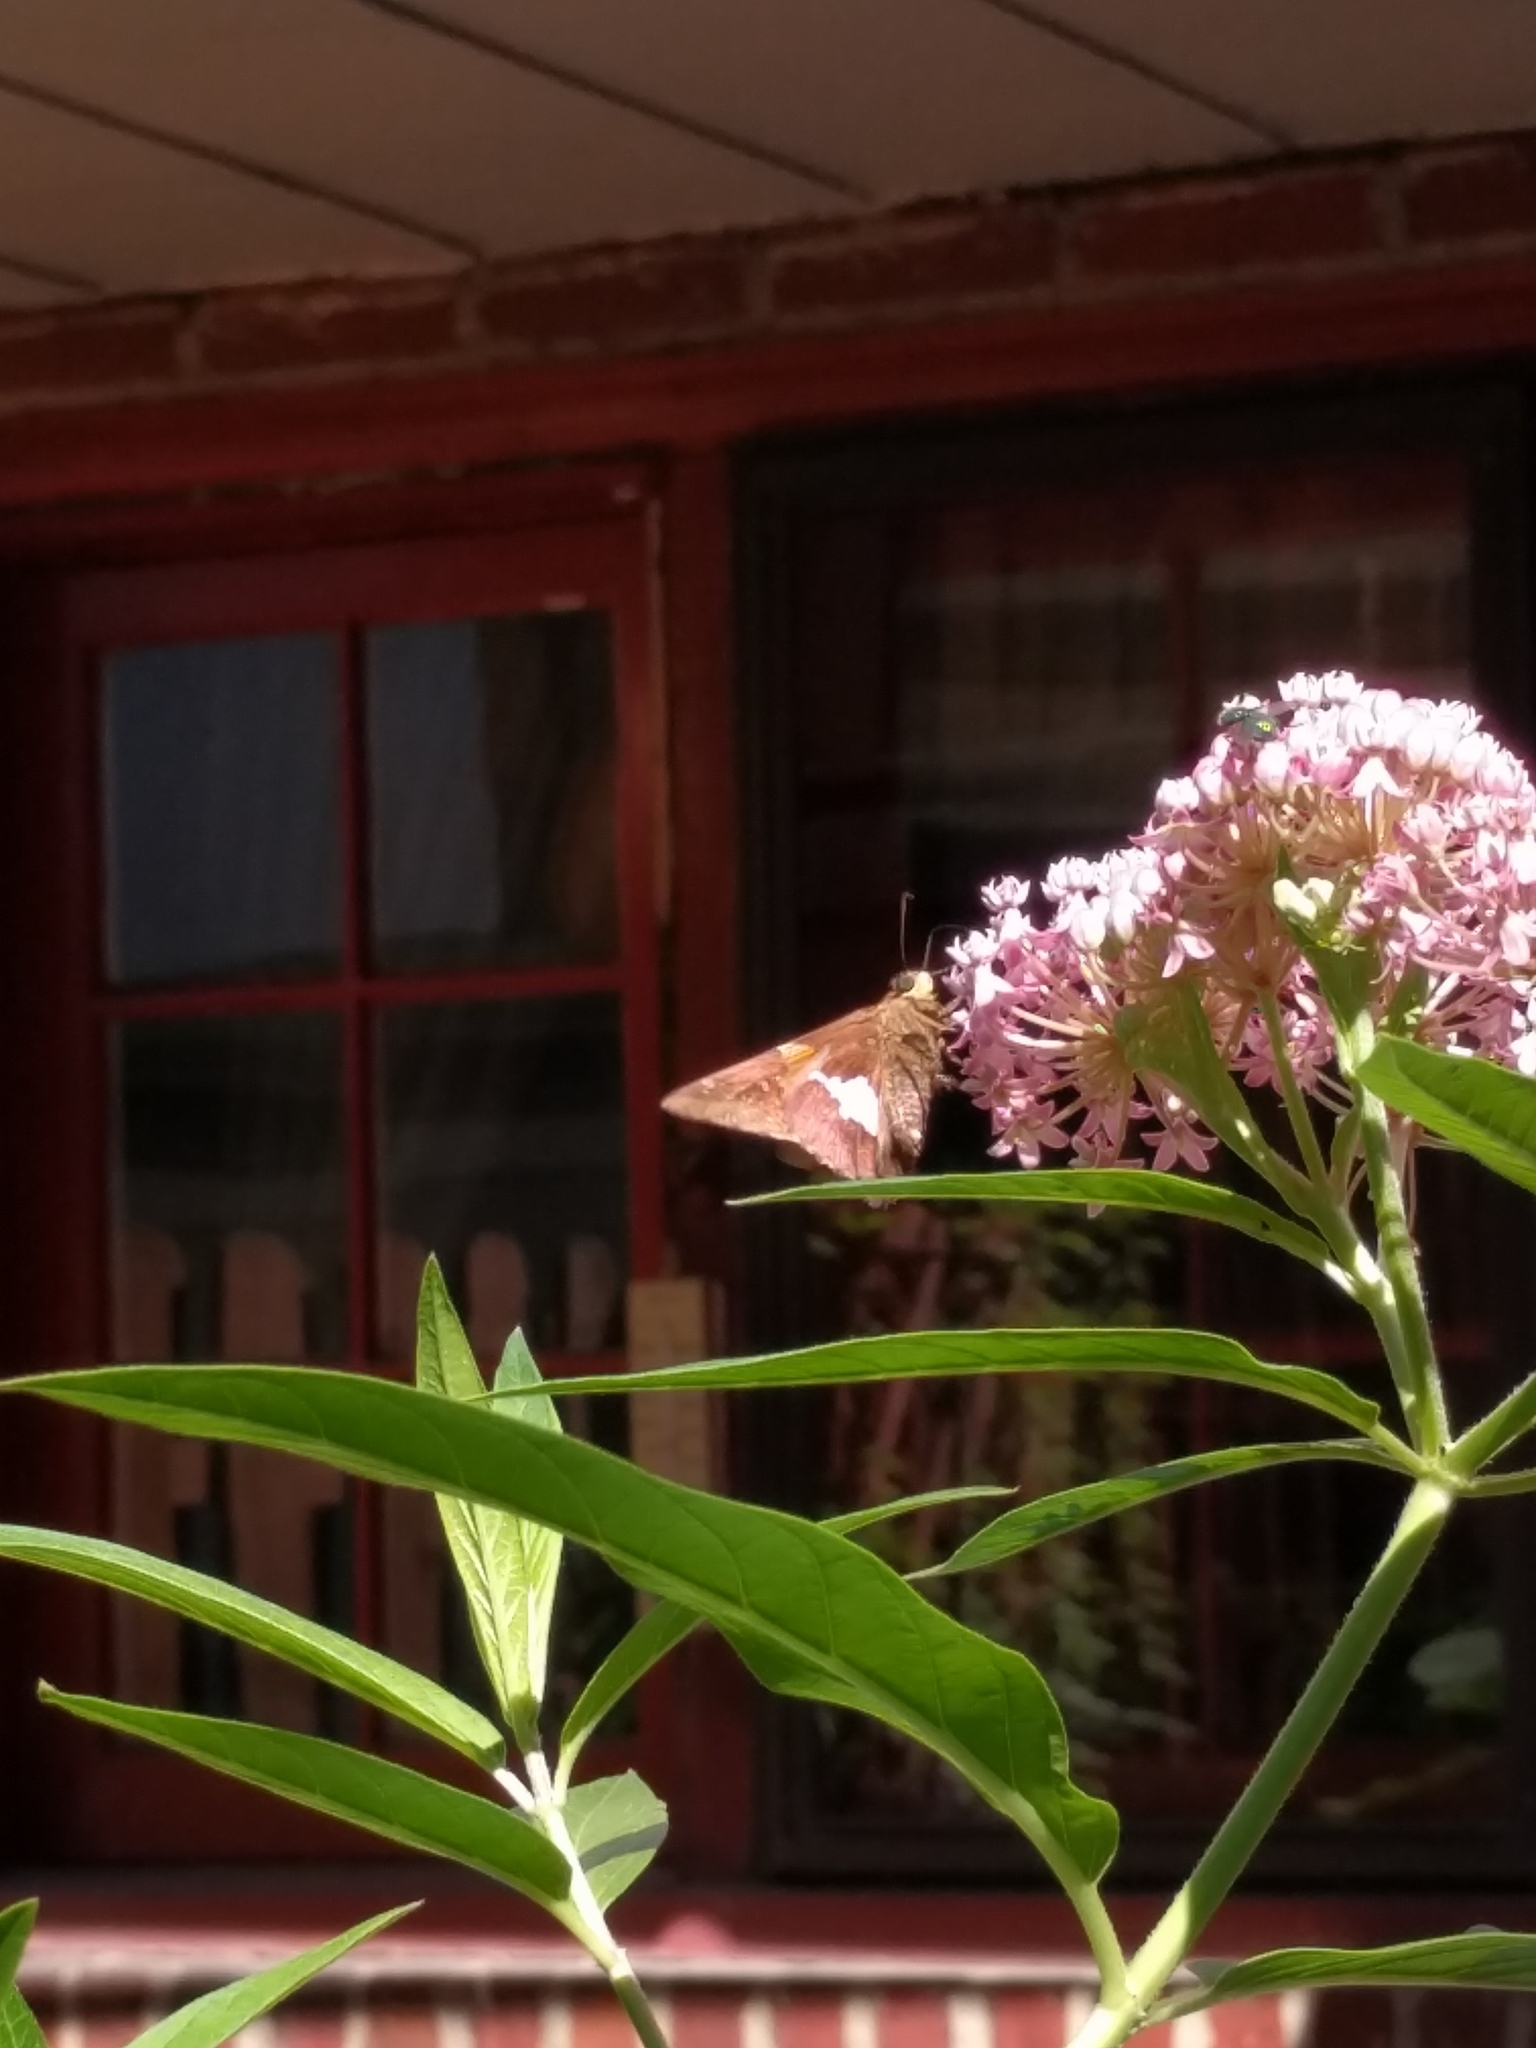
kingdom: Animalia
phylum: Arthropoda
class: Insecta
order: Lepidoptera
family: Hesperiidae
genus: Epargyreus
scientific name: Epargyreus clarus
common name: Silver-spotted skipper
